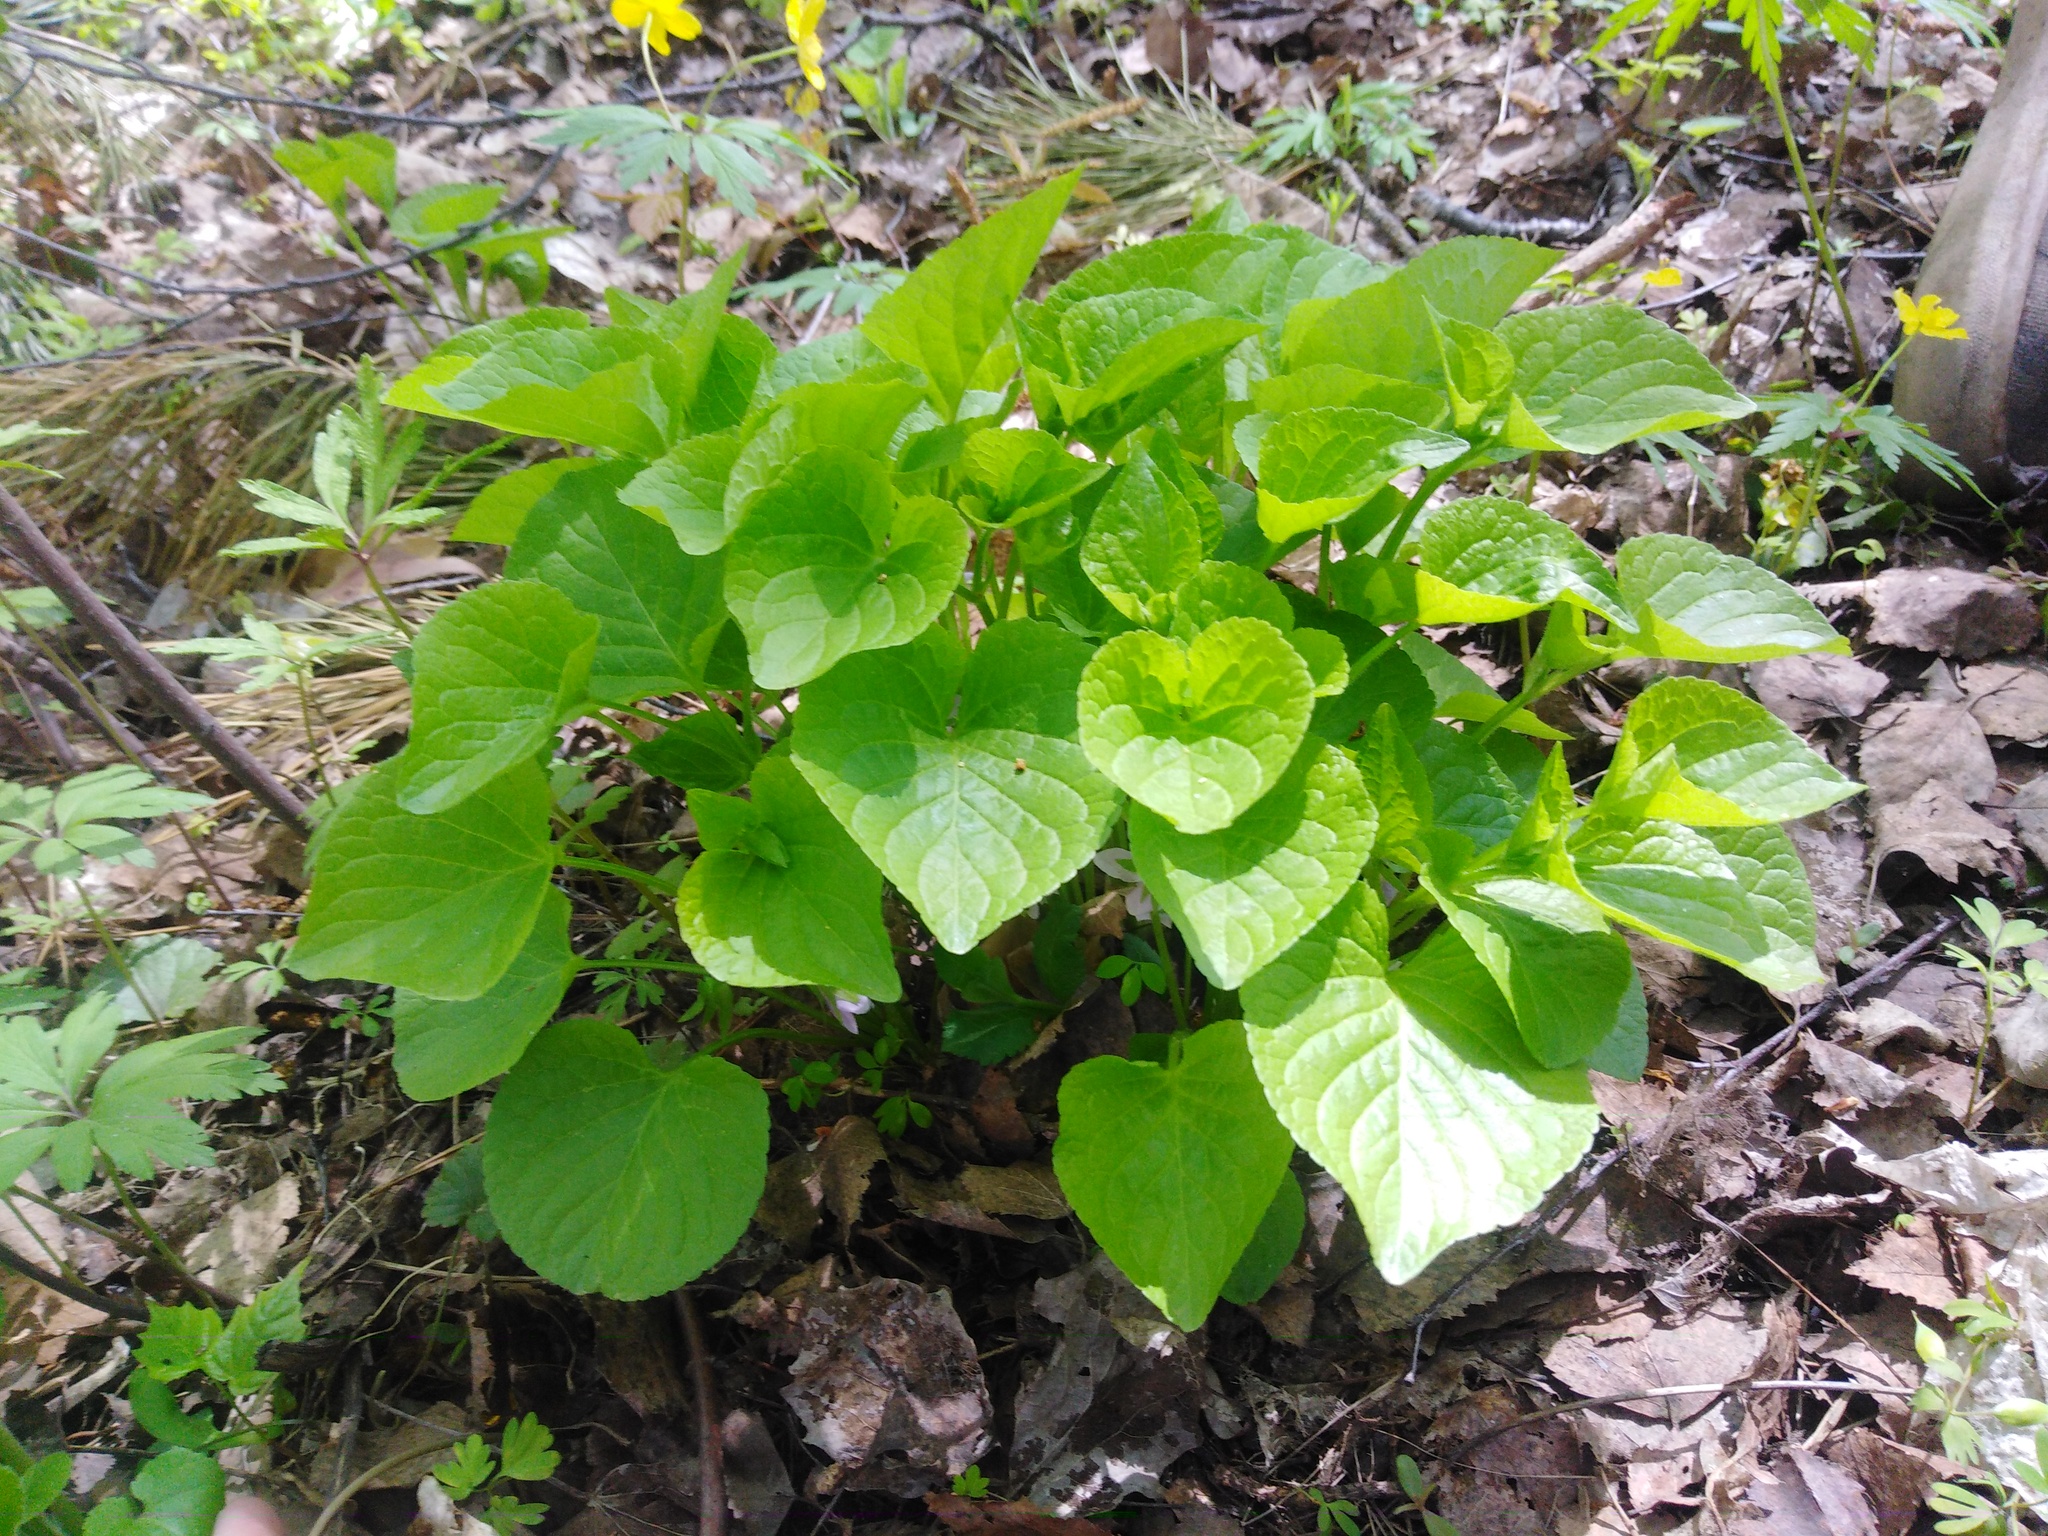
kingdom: Plantae
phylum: Tracheophyta
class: Magnoliopsida
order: Malpighiales
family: Violaceae
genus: Viola
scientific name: Viola mirabilis
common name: Wonder violet
